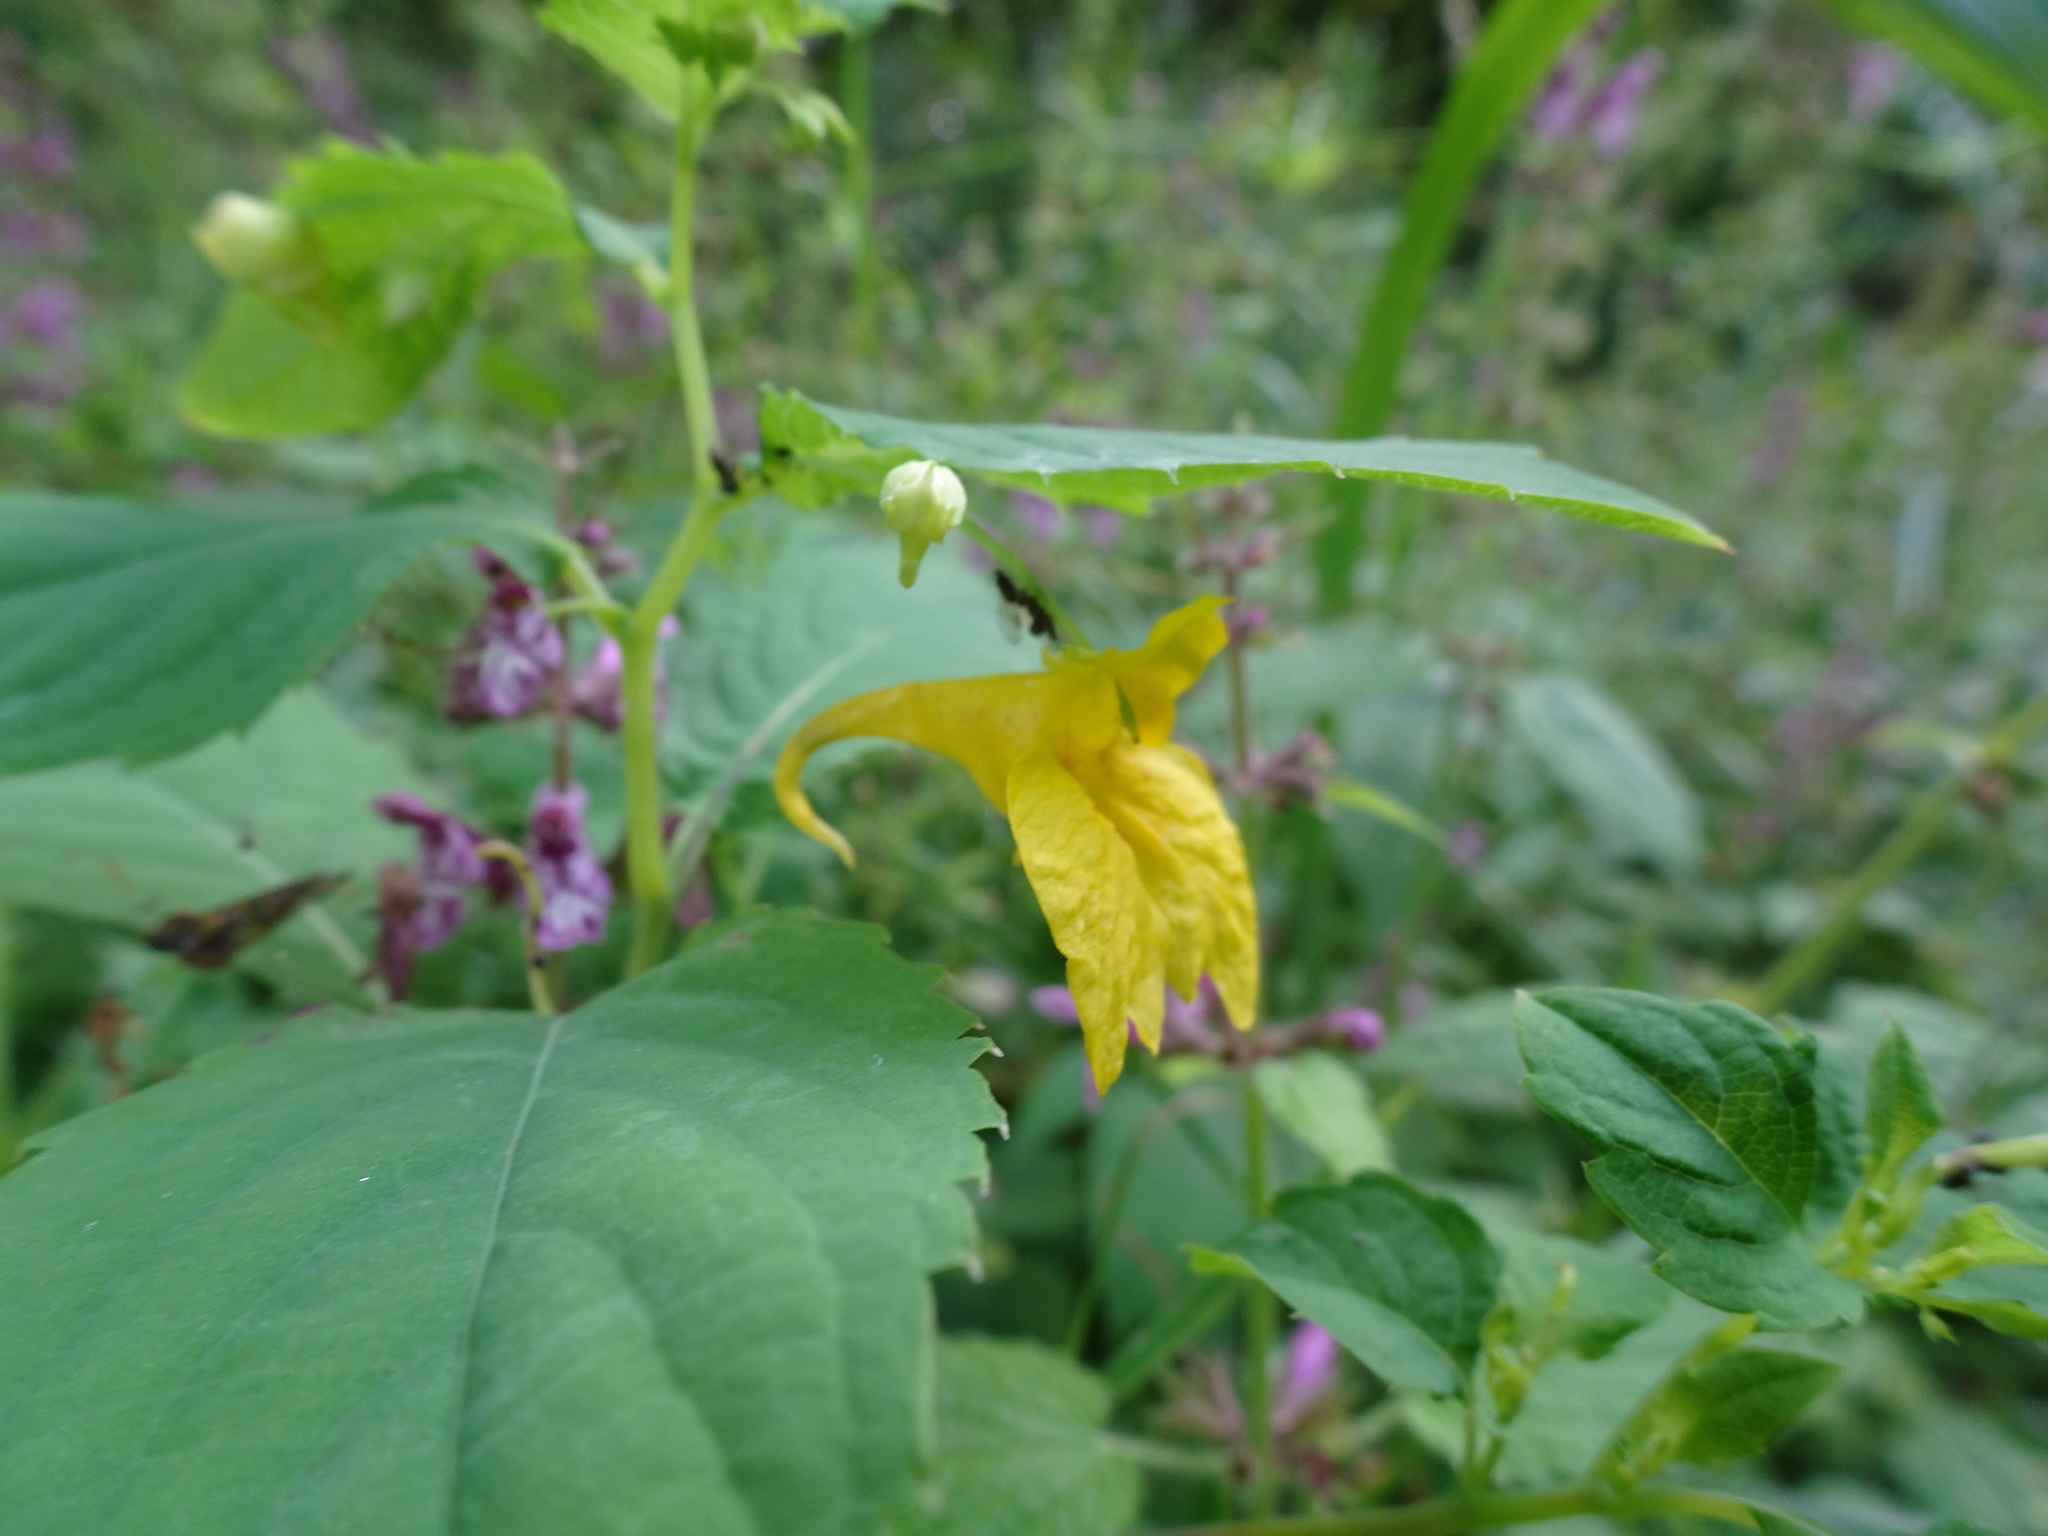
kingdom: Plantae
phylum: Tracheophyta
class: Magnoliopsida
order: Ericales
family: Balsaminaceae
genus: Impatiens
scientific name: Impatiens noli-tangere
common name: Touch-me-not balsam
